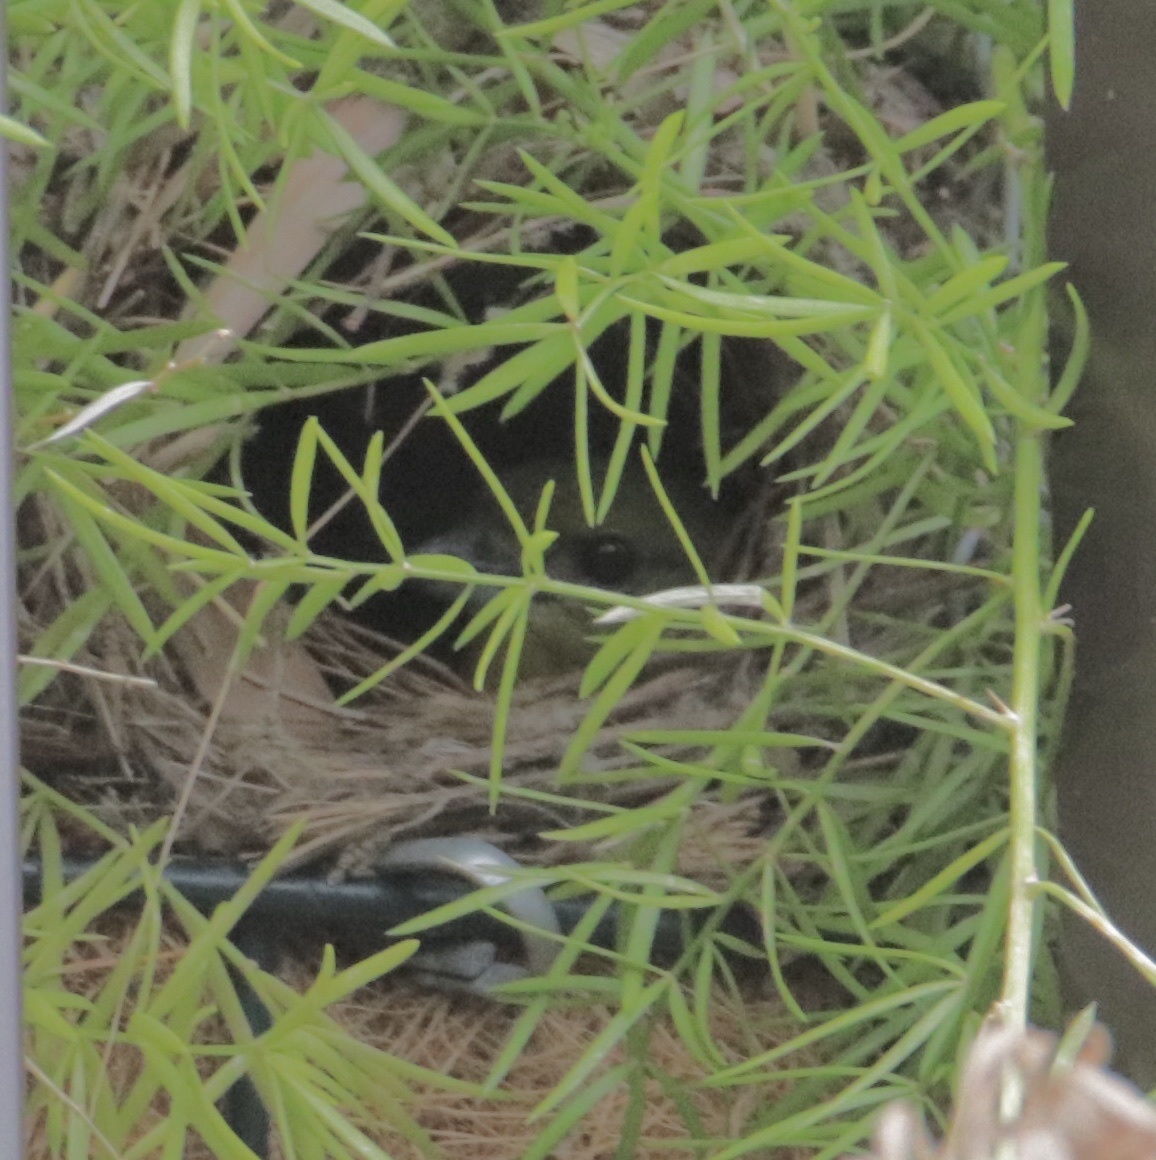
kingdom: Animalia
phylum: Chordata
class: Aves
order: Passeriformes
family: Fringillidae
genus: Euphonia
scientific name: Euphonia laniirostris
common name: Thick-billed euphonia
